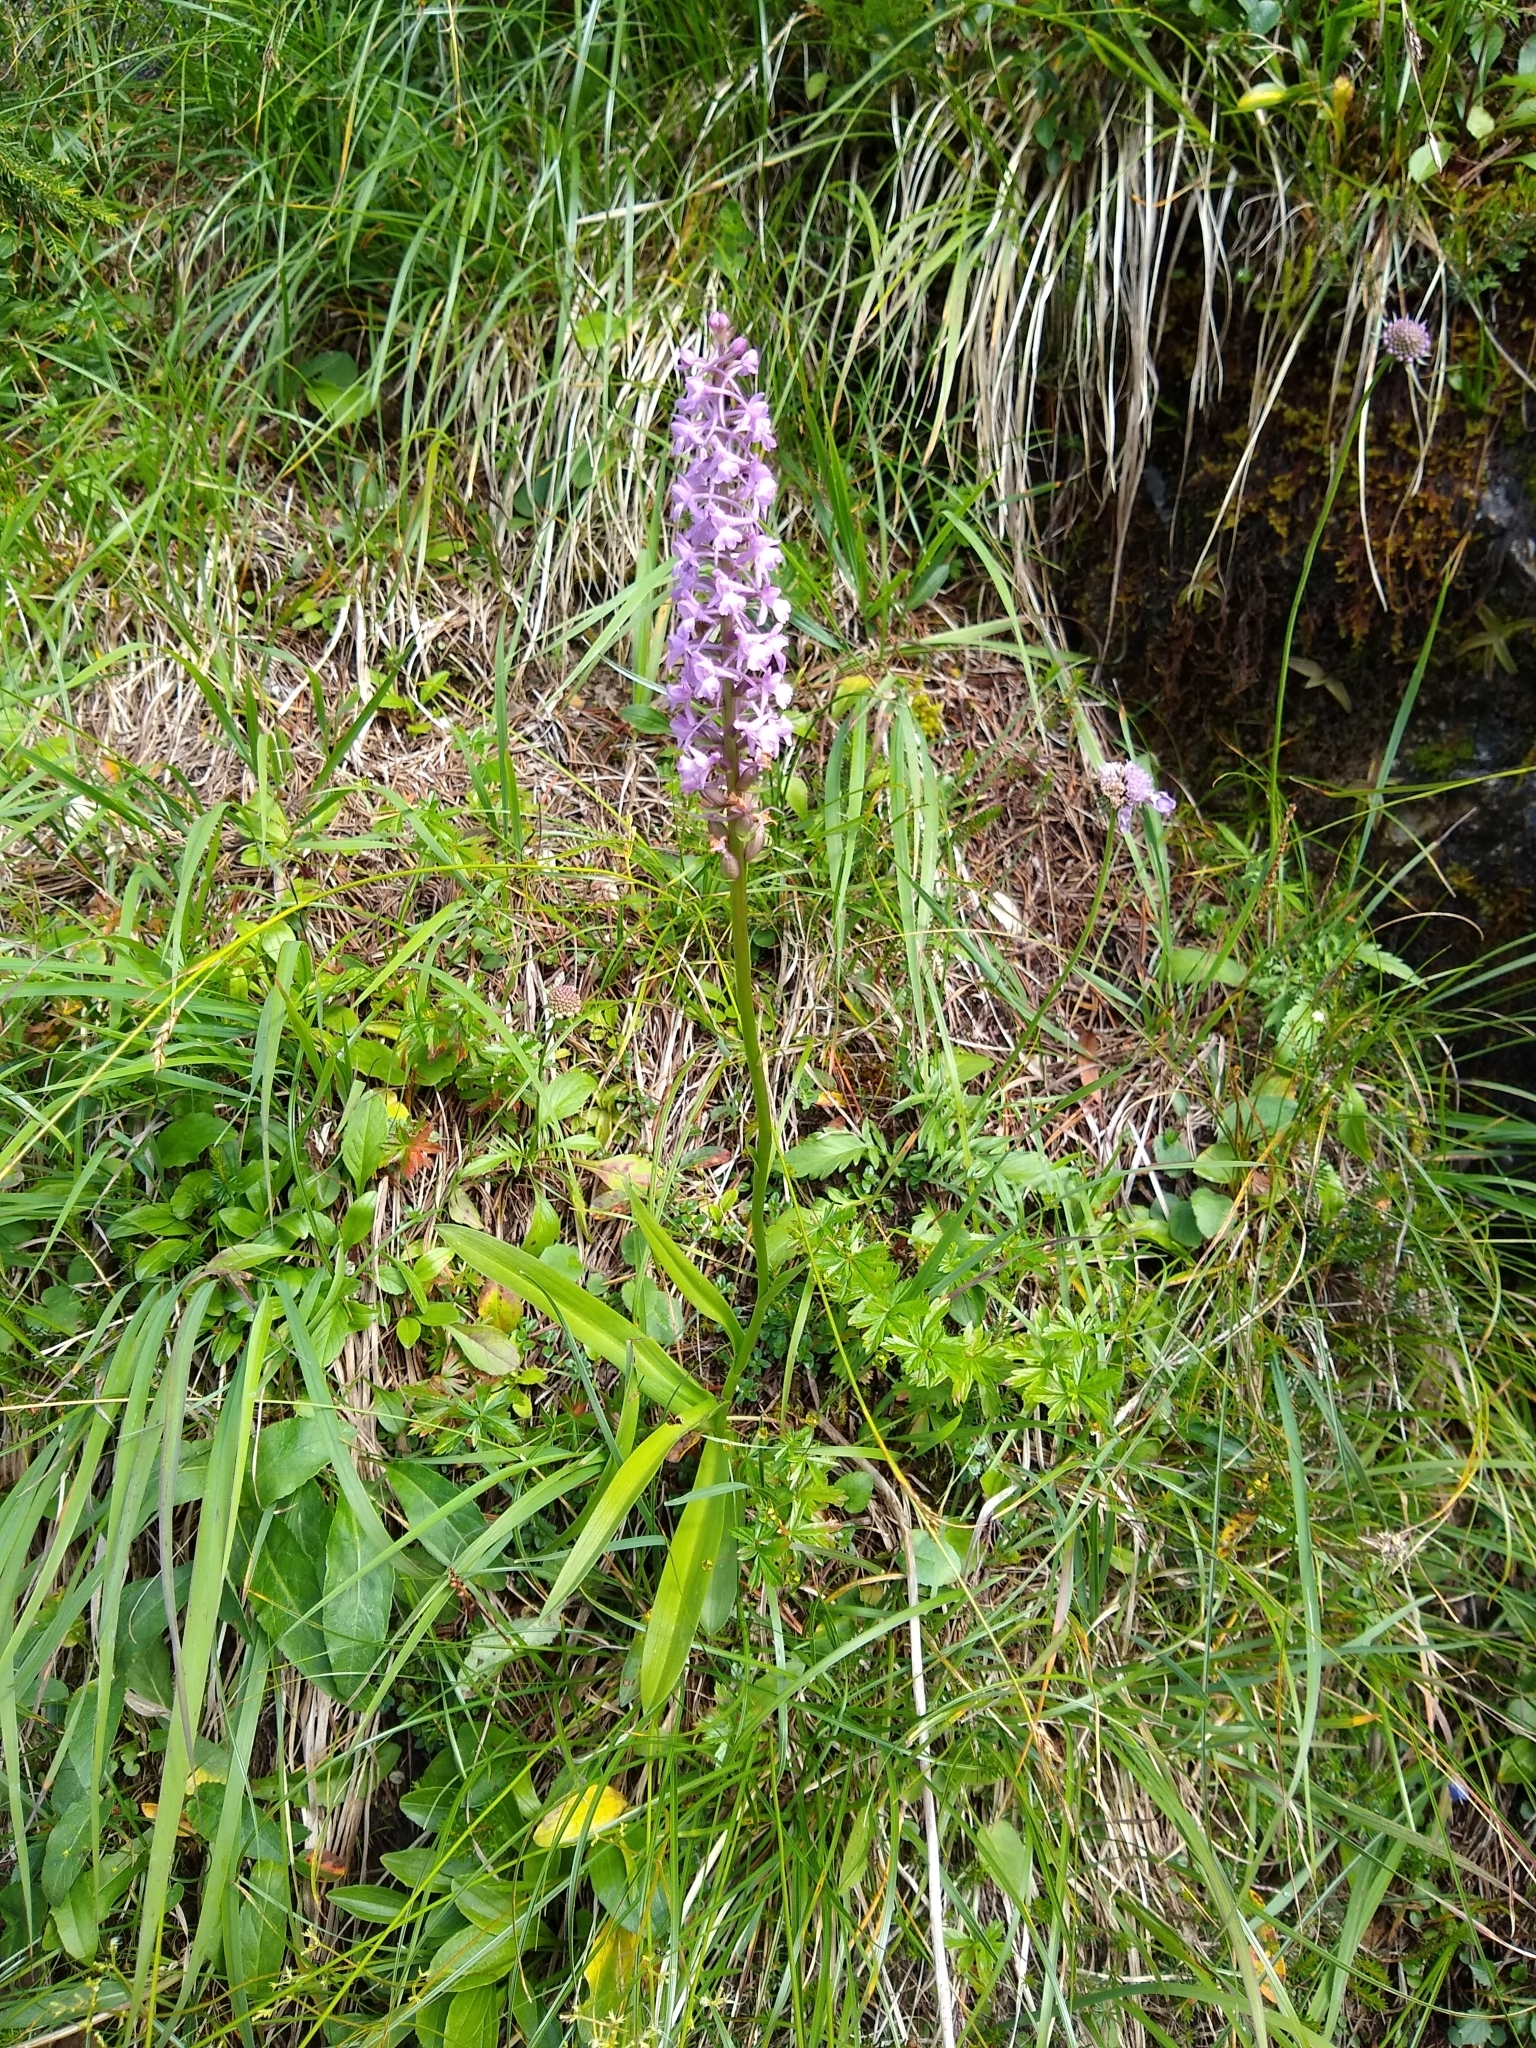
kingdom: Plantae
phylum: Tracheophyta
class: Liliopsida
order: Asparagales
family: Orchidaceae
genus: Gymnadenia
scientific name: Gymnadenia conopsea
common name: Fragrant orchid
